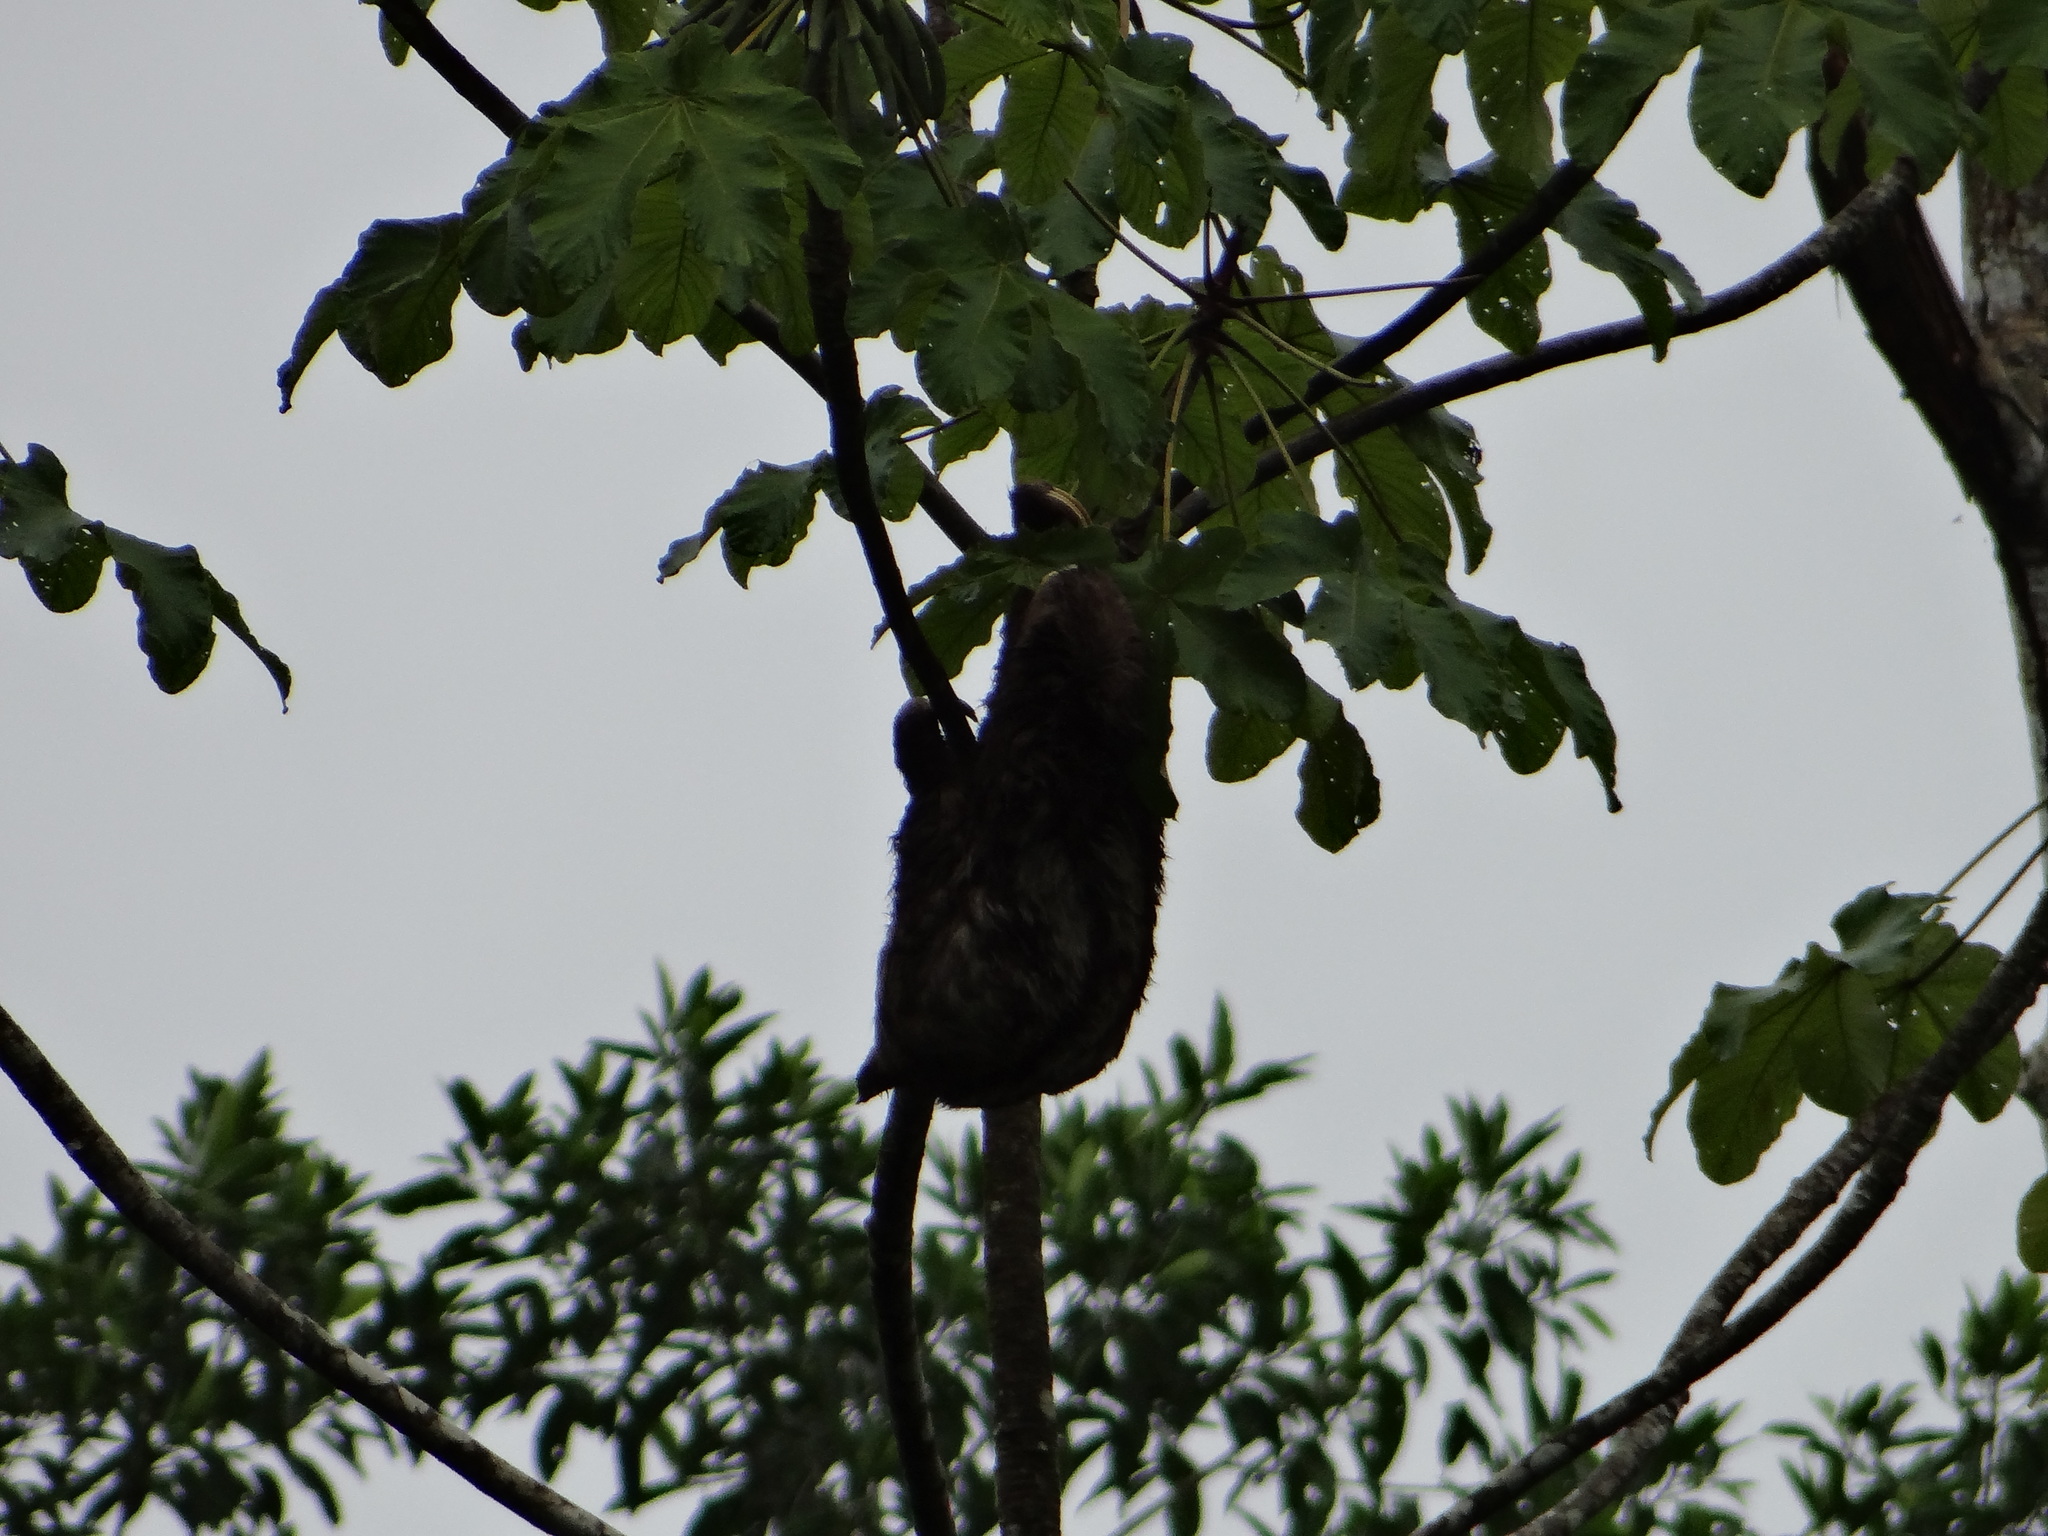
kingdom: Animalia
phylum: Chordata
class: Mammalia
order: Pilosa
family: Bradypodidae
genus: Bradypus
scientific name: Bradypus variegatus
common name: Brown-throated three-toed sloth
